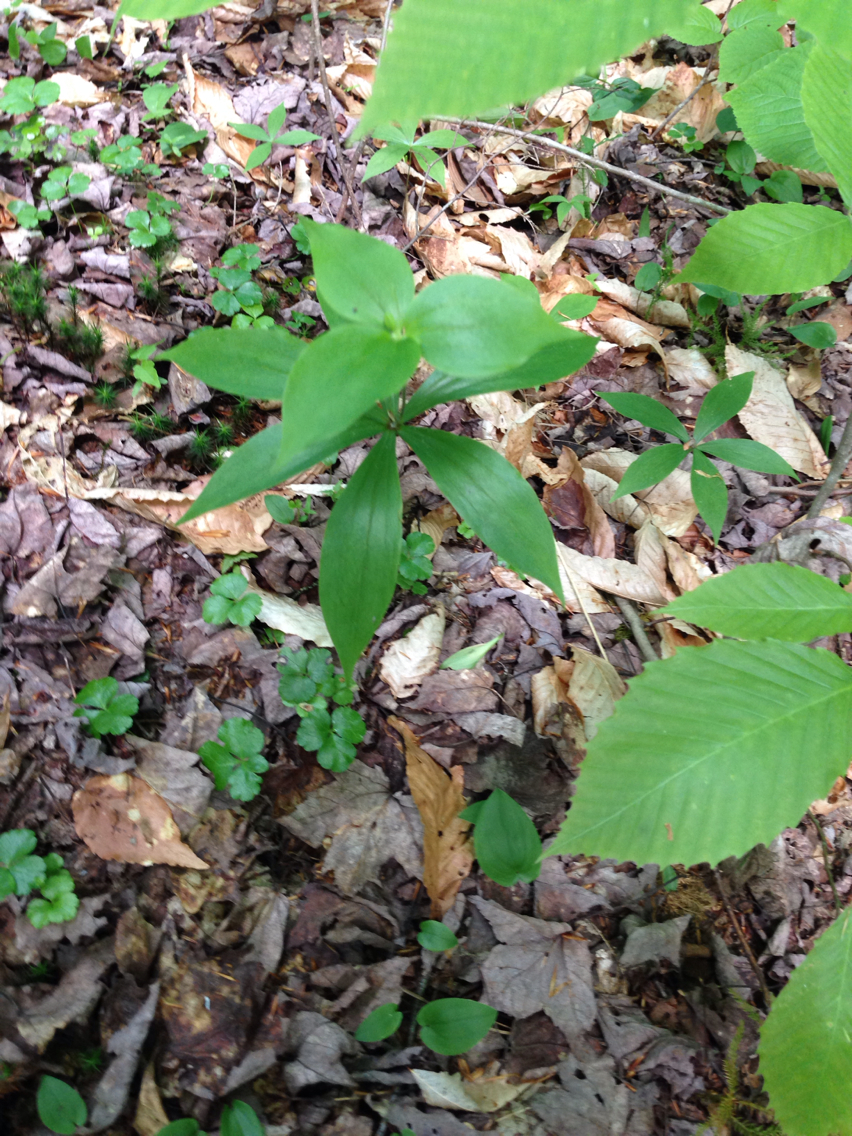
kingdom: Plantae
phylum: Tracheophyta
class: Liliopsida
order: Liliales
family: Liliaceae
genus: Medeola
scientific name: Medeola virginiana
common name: Indian cucumber-root
